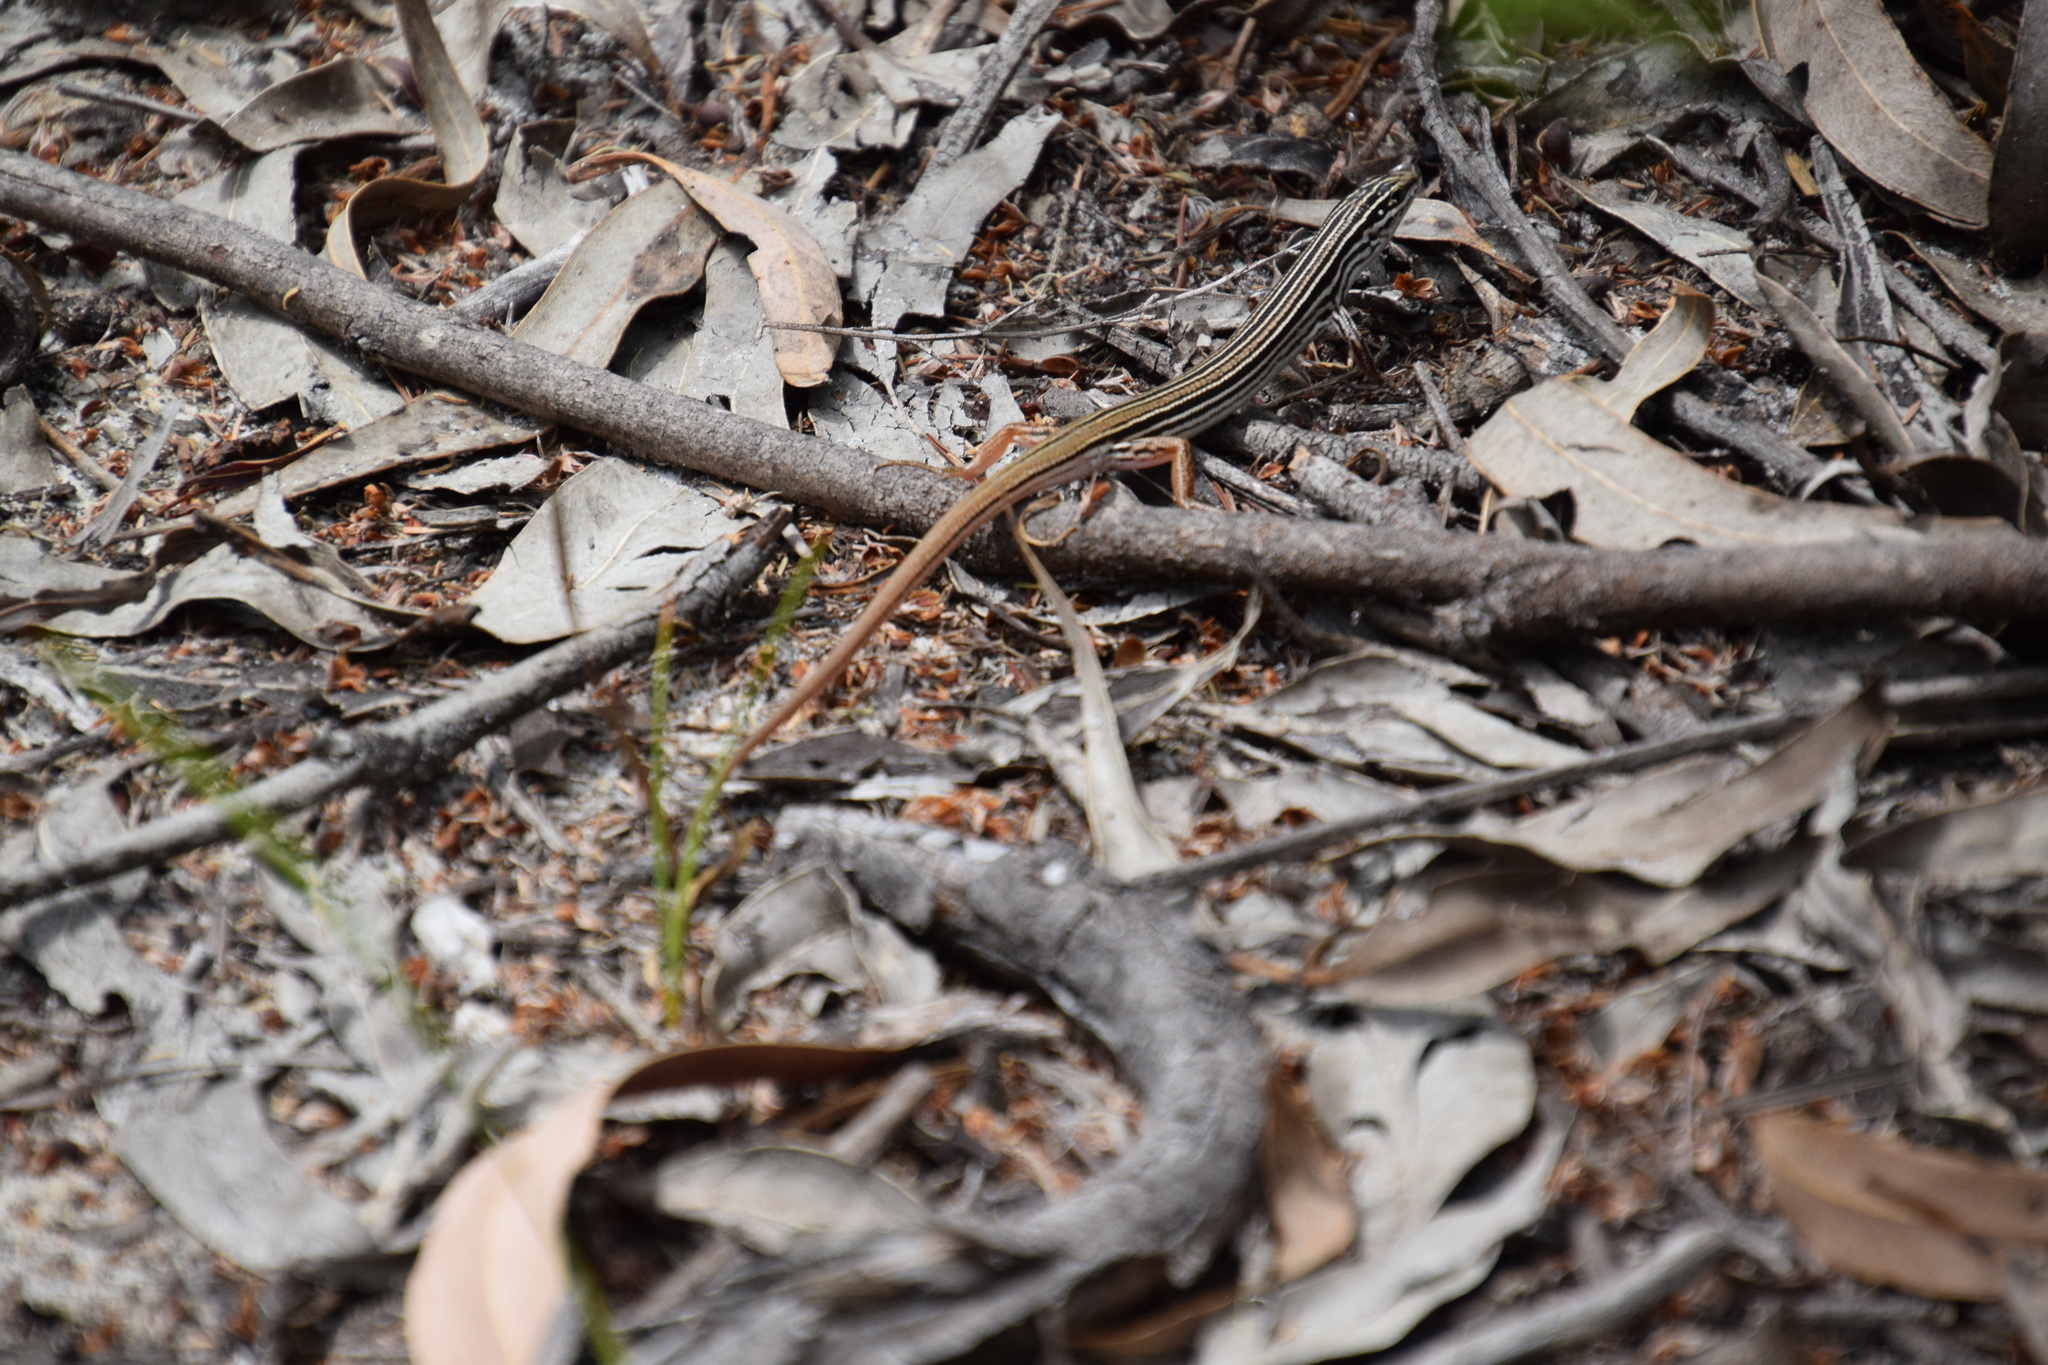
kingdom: Animalia
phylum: Chordata
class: Squamata
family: Scincidae
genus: Ctenotus
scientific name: Ctenotus taeniolatus
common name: Copper-tailed skink
